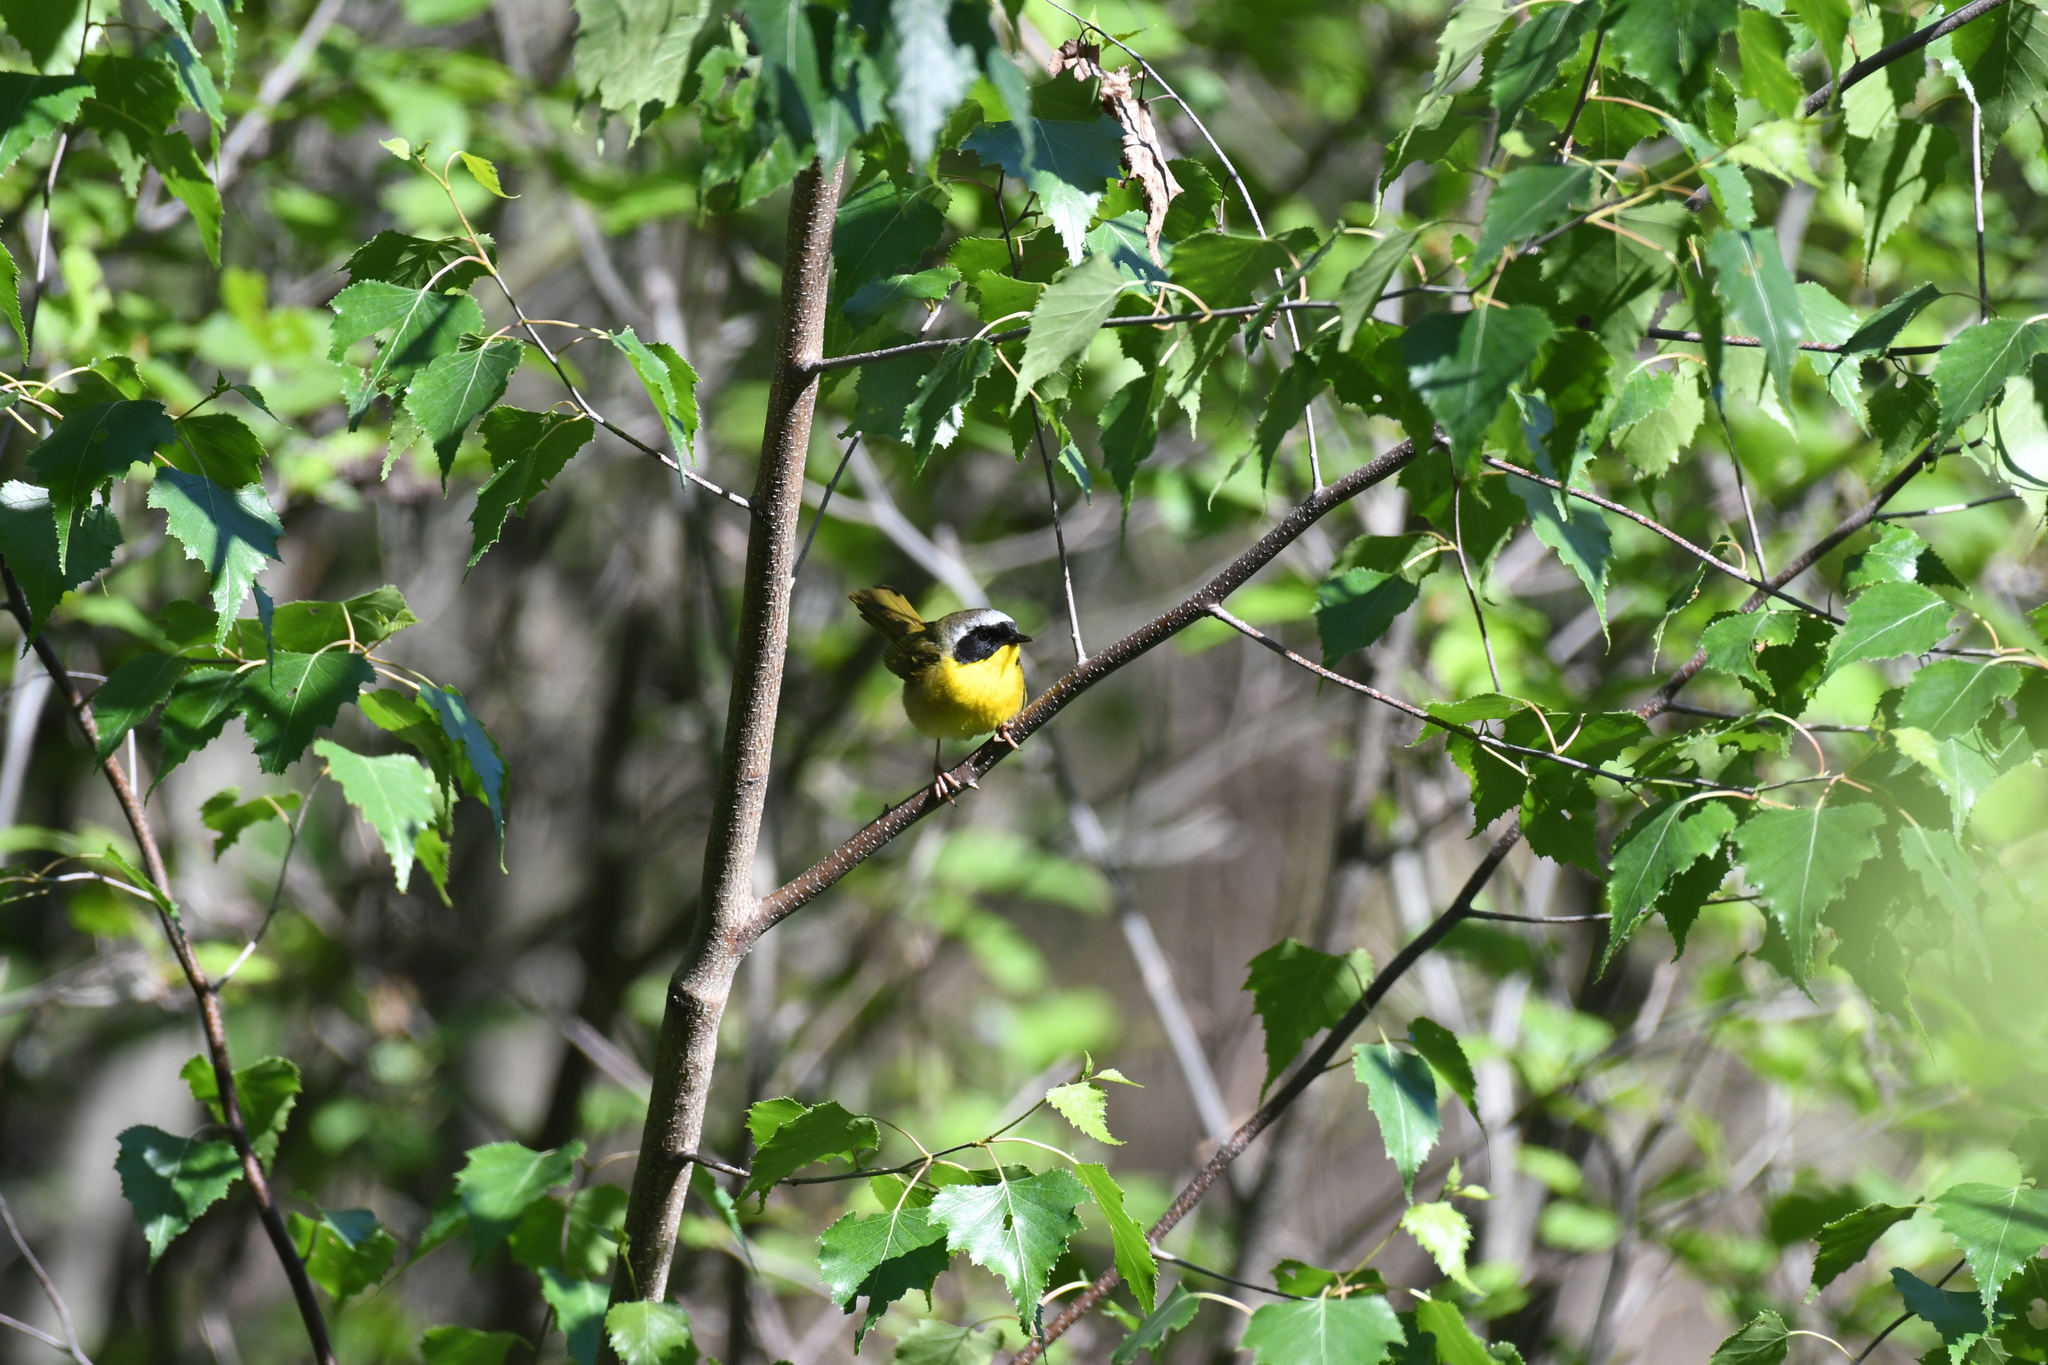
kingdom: Animalia
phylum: Chordata
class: Aves
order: Passeriformes
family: Parulidae
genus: Geothlypis
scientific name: Geothlypis trichas
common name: Common yellowthroat
